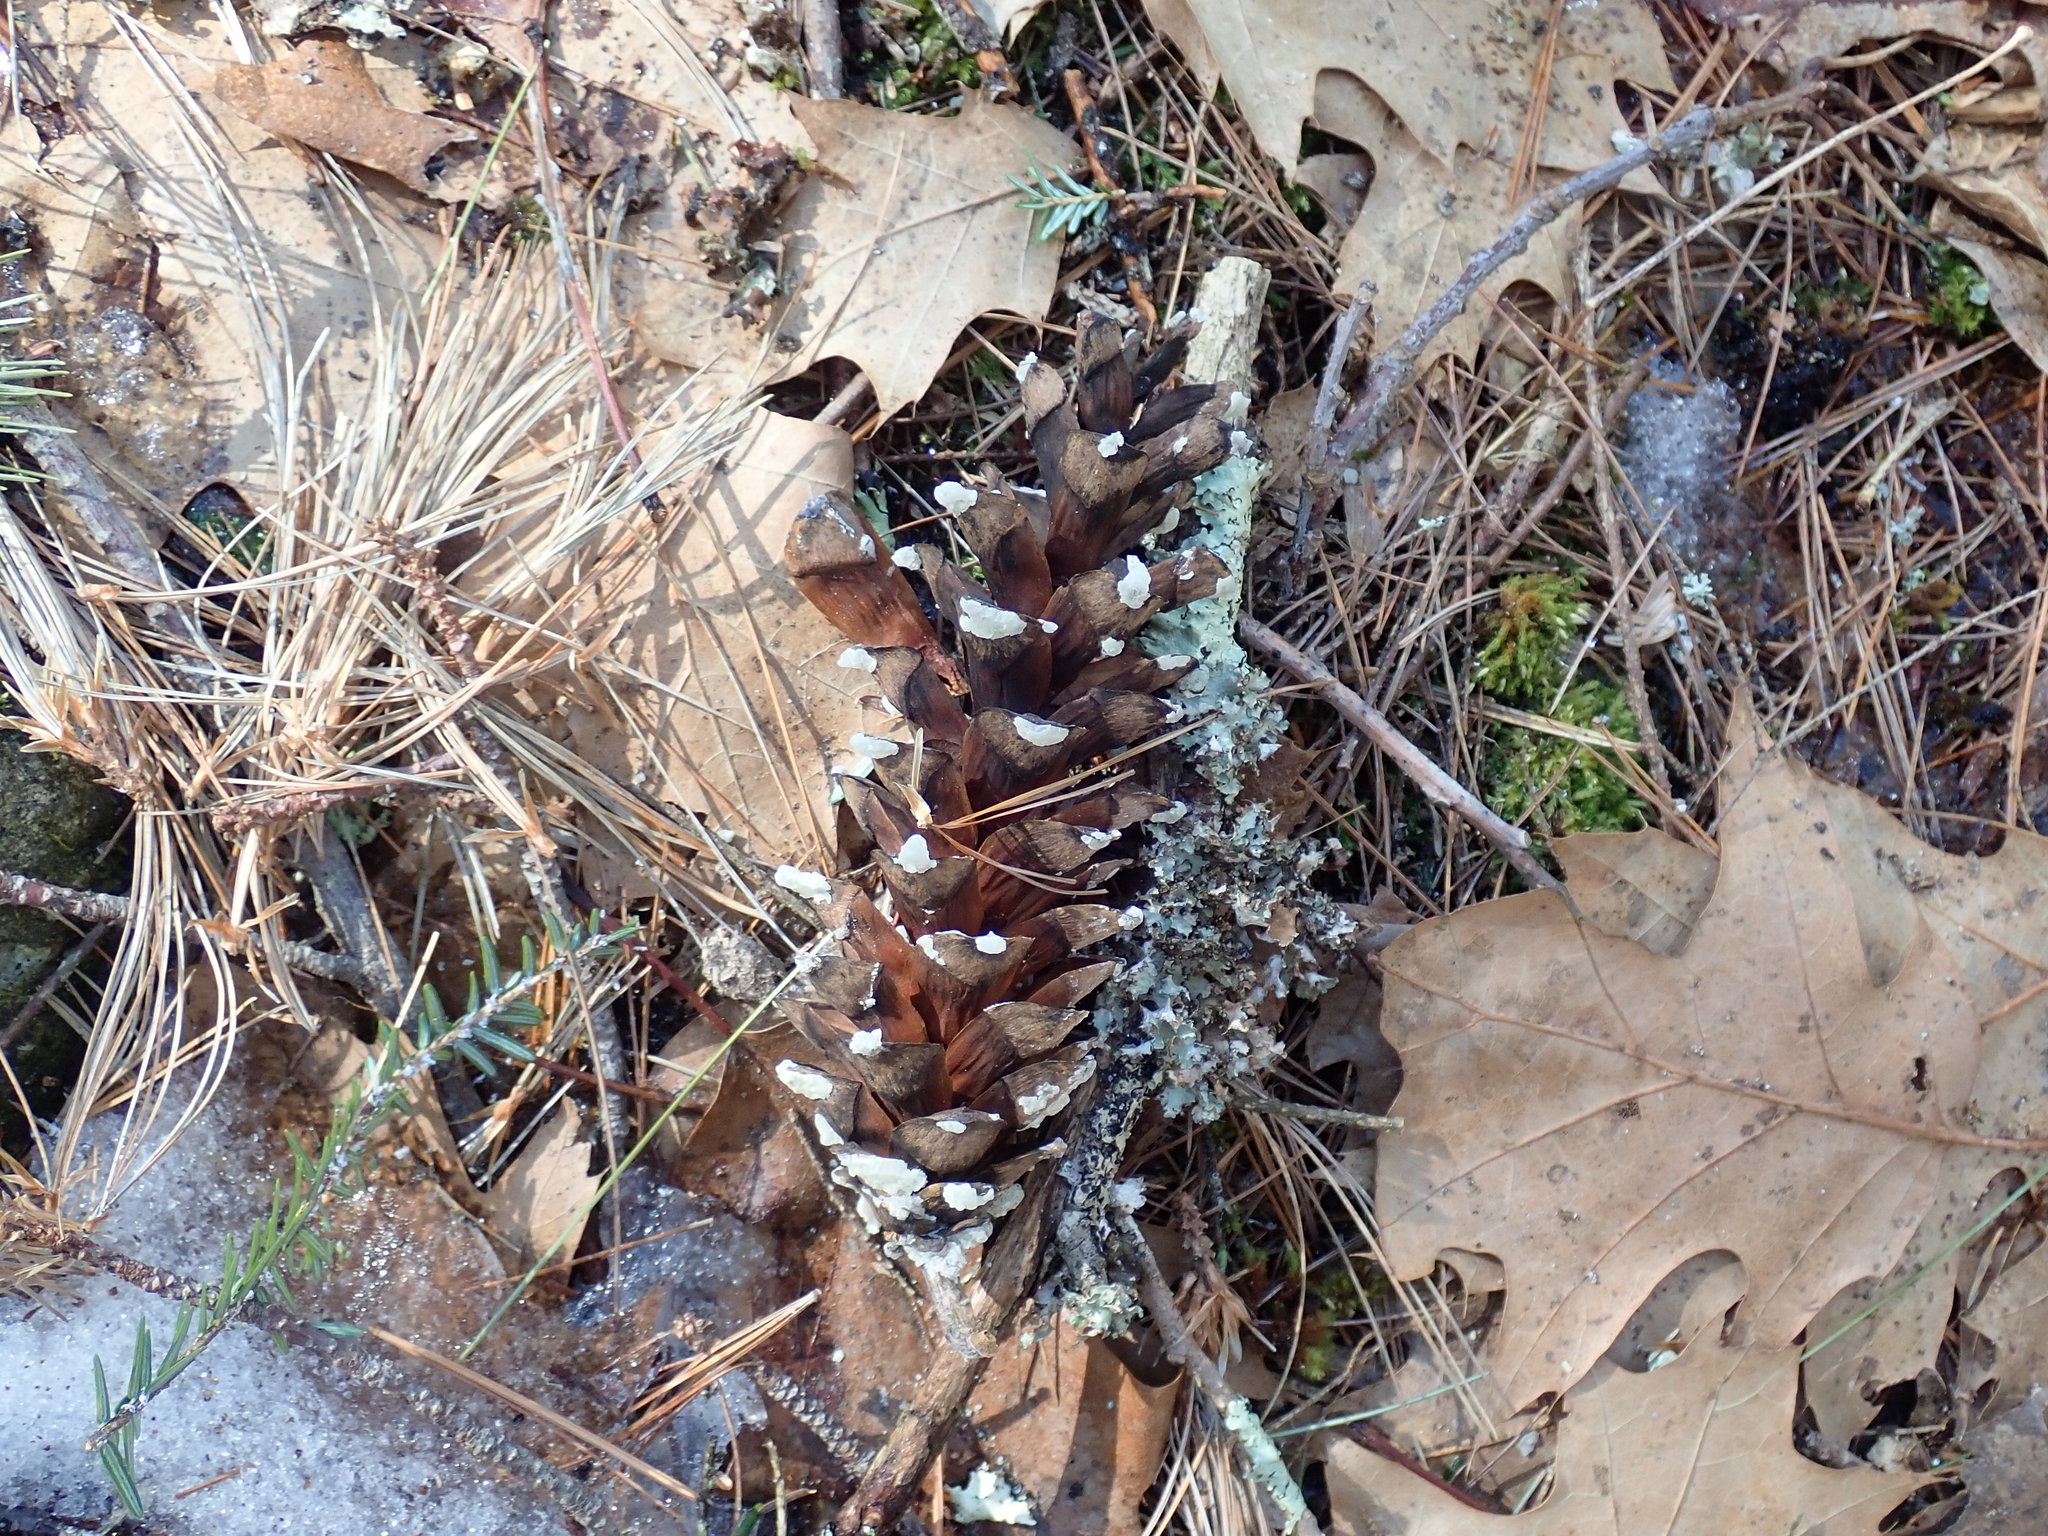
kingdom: Plantae
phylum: Tracheophyta
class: Pinopsida
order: Pinales
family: Pinaceae
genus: Pinus
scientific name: Pinus strobus
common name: Weymouth pine
